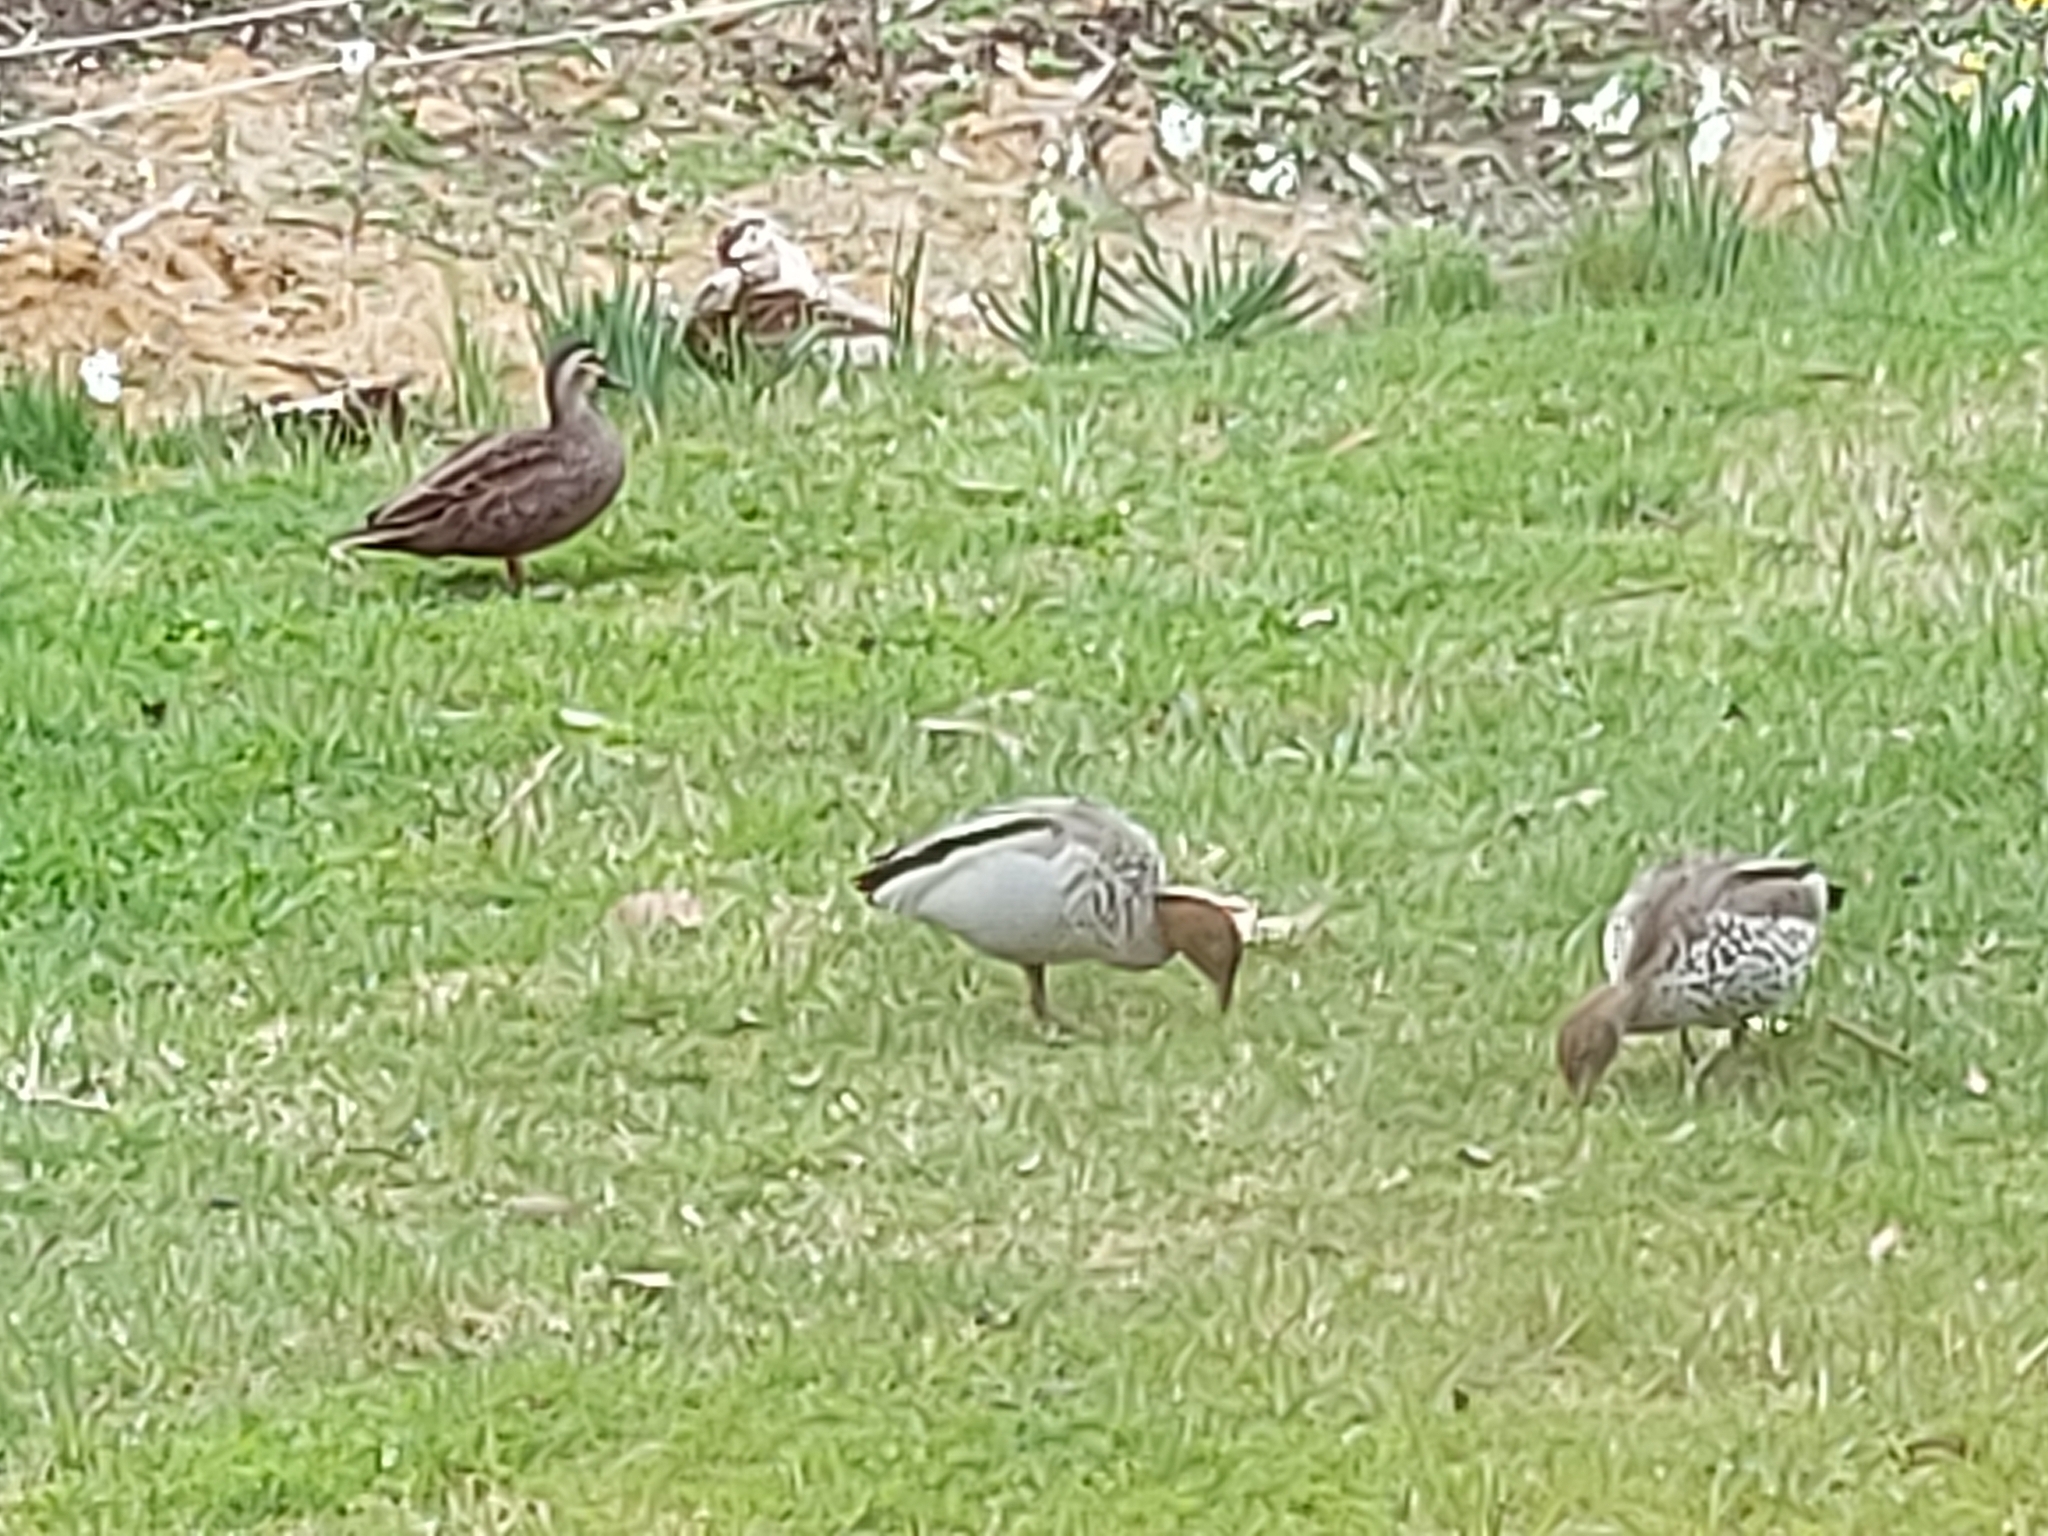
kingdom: Animalia
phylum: Chordata
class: Aves
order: Anseriformes
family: Anatidae
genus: Anas
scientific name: Anas superciliosa
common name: Pacific black duck
